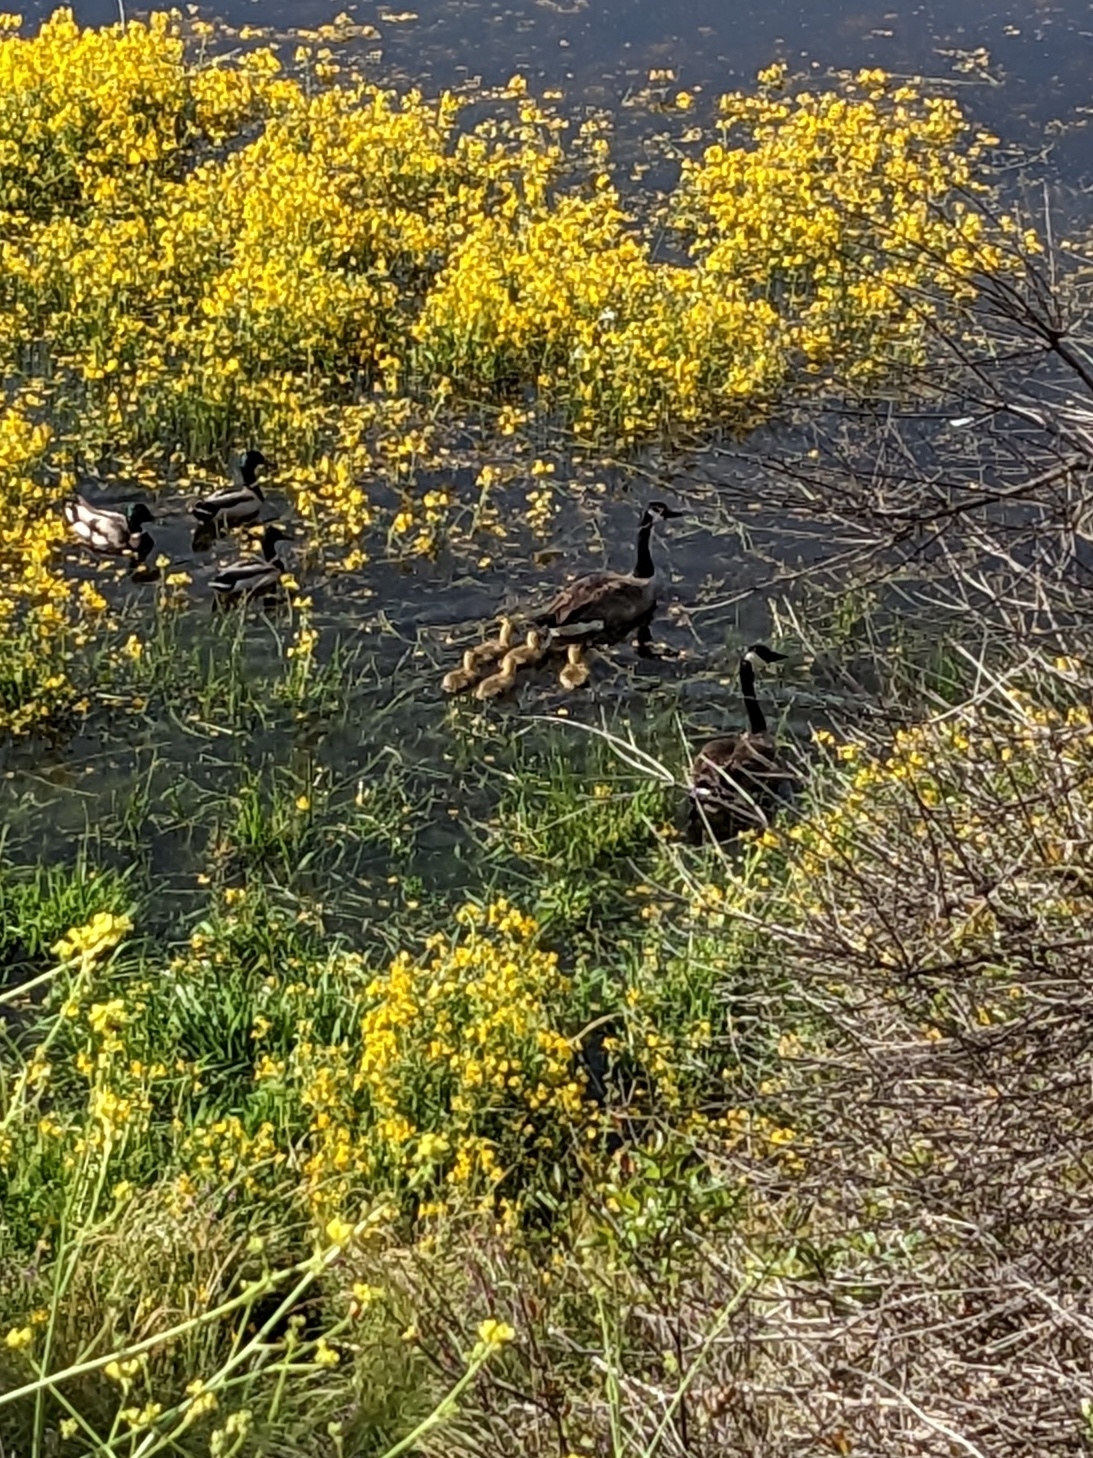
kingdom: Animalia
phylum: Chordata
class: Aves
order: Anseriformes
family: Anatidae
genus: Branta
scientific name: Branta canadensis
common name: Canada goose
